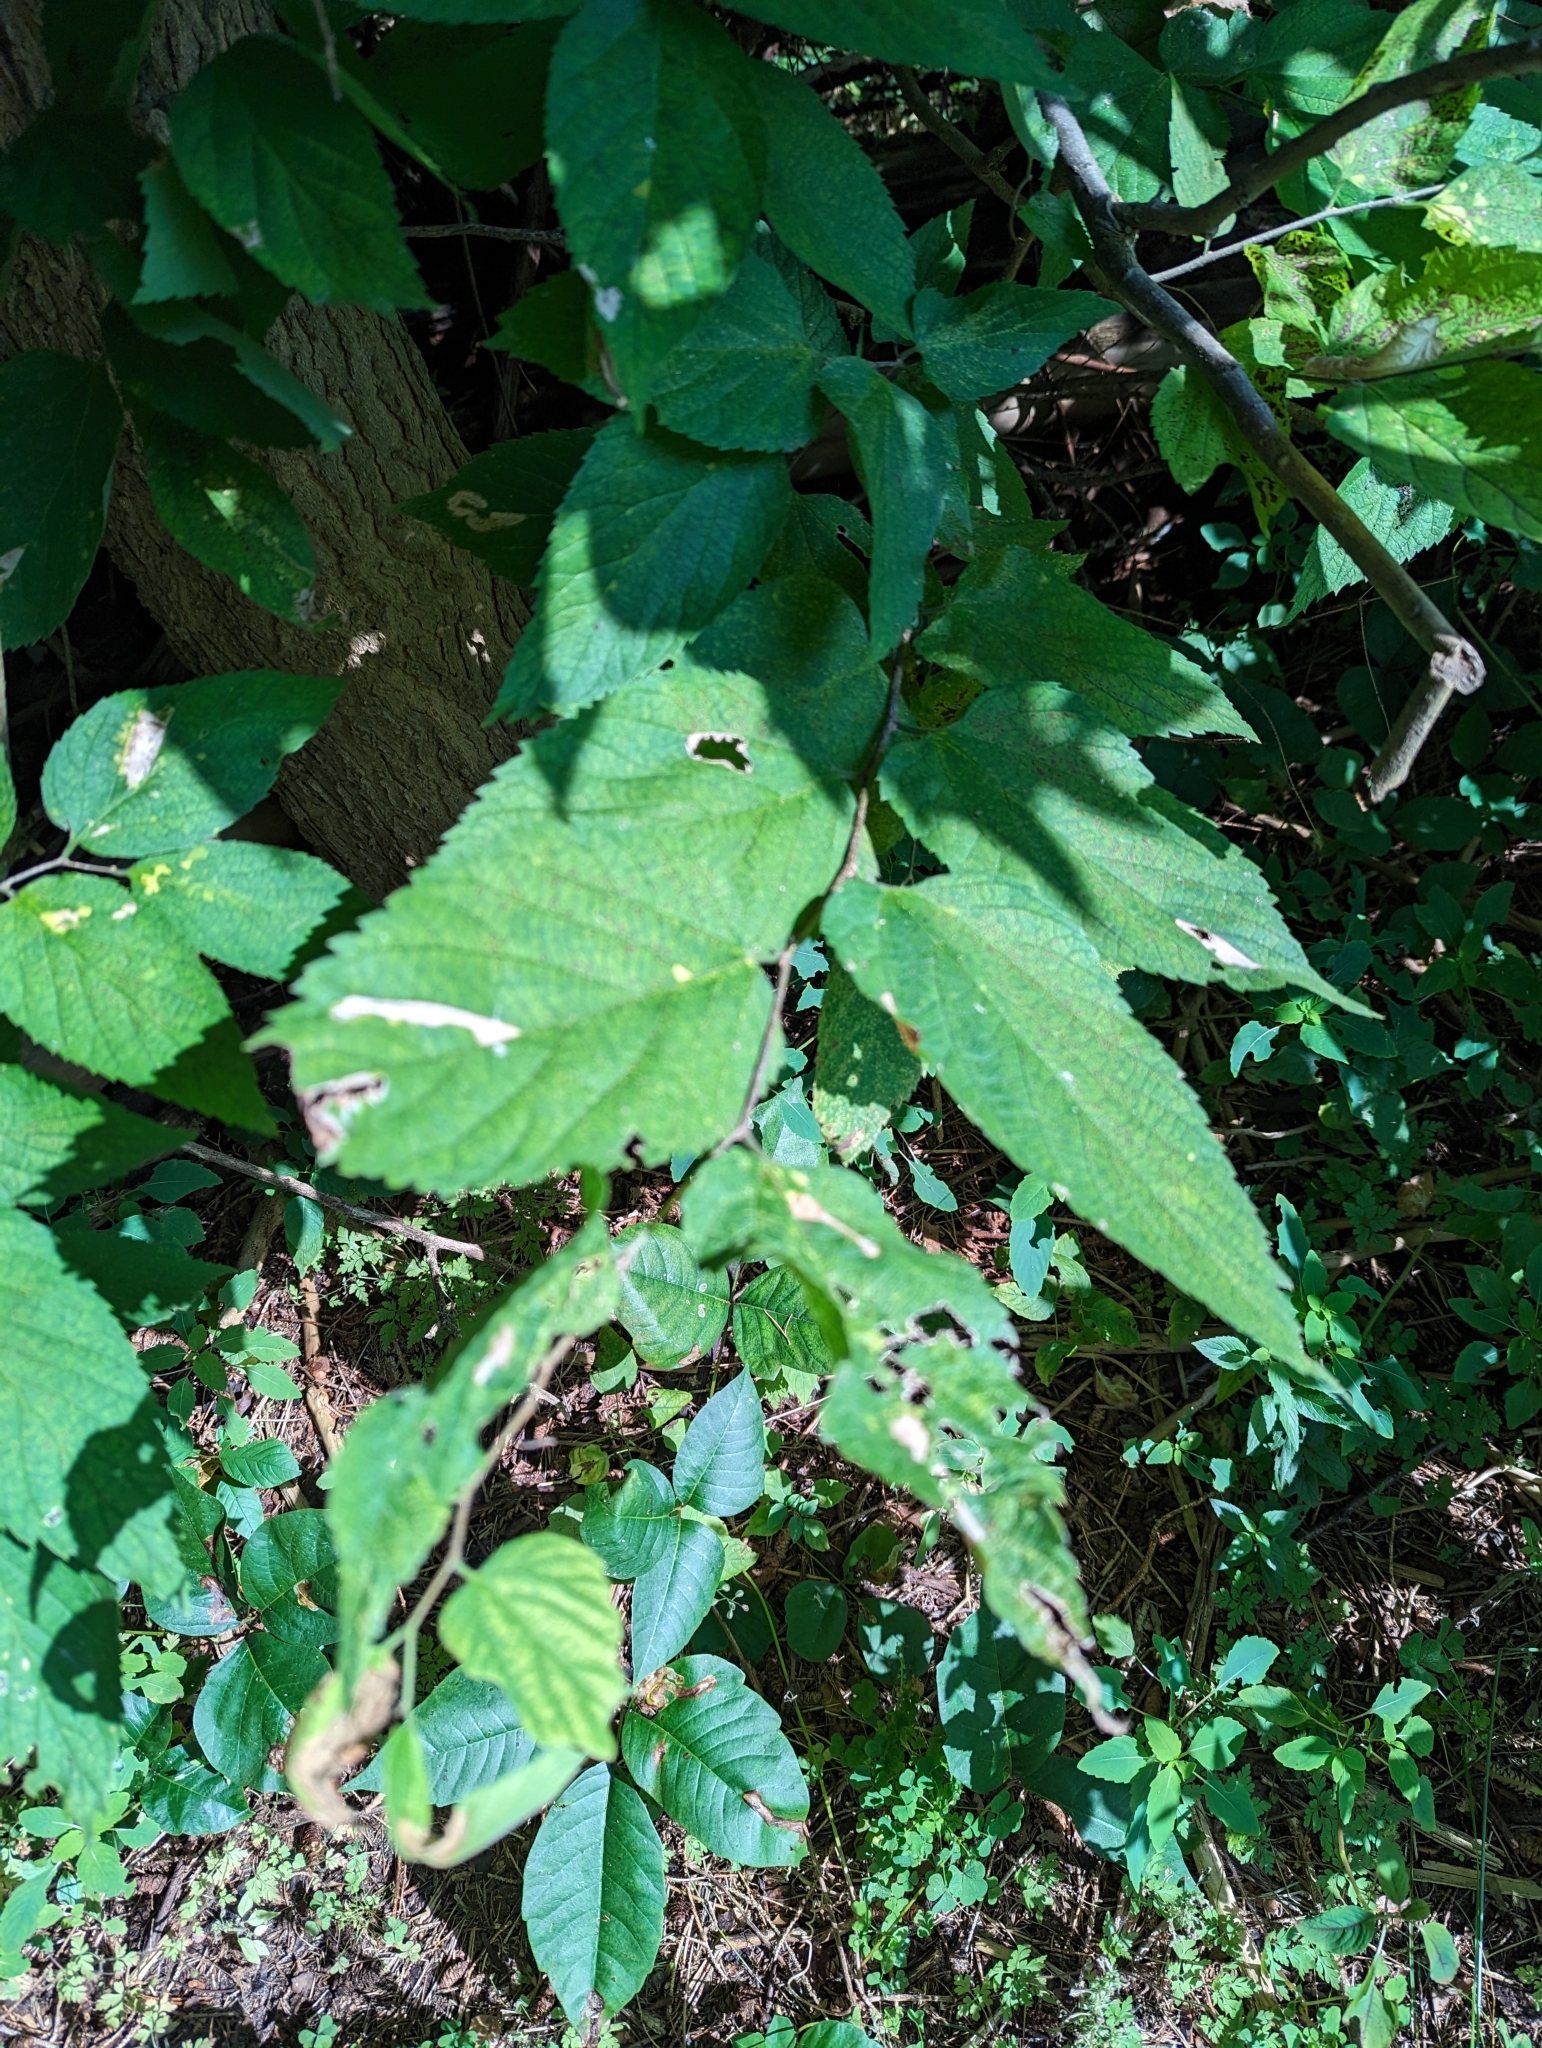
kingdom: Plantae
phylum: Tracheophyta
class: Magnoliopsida
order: Rosales
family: Cannabaceae
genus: Celtis
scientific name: Celtis occidentalis
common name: Common hackberry
